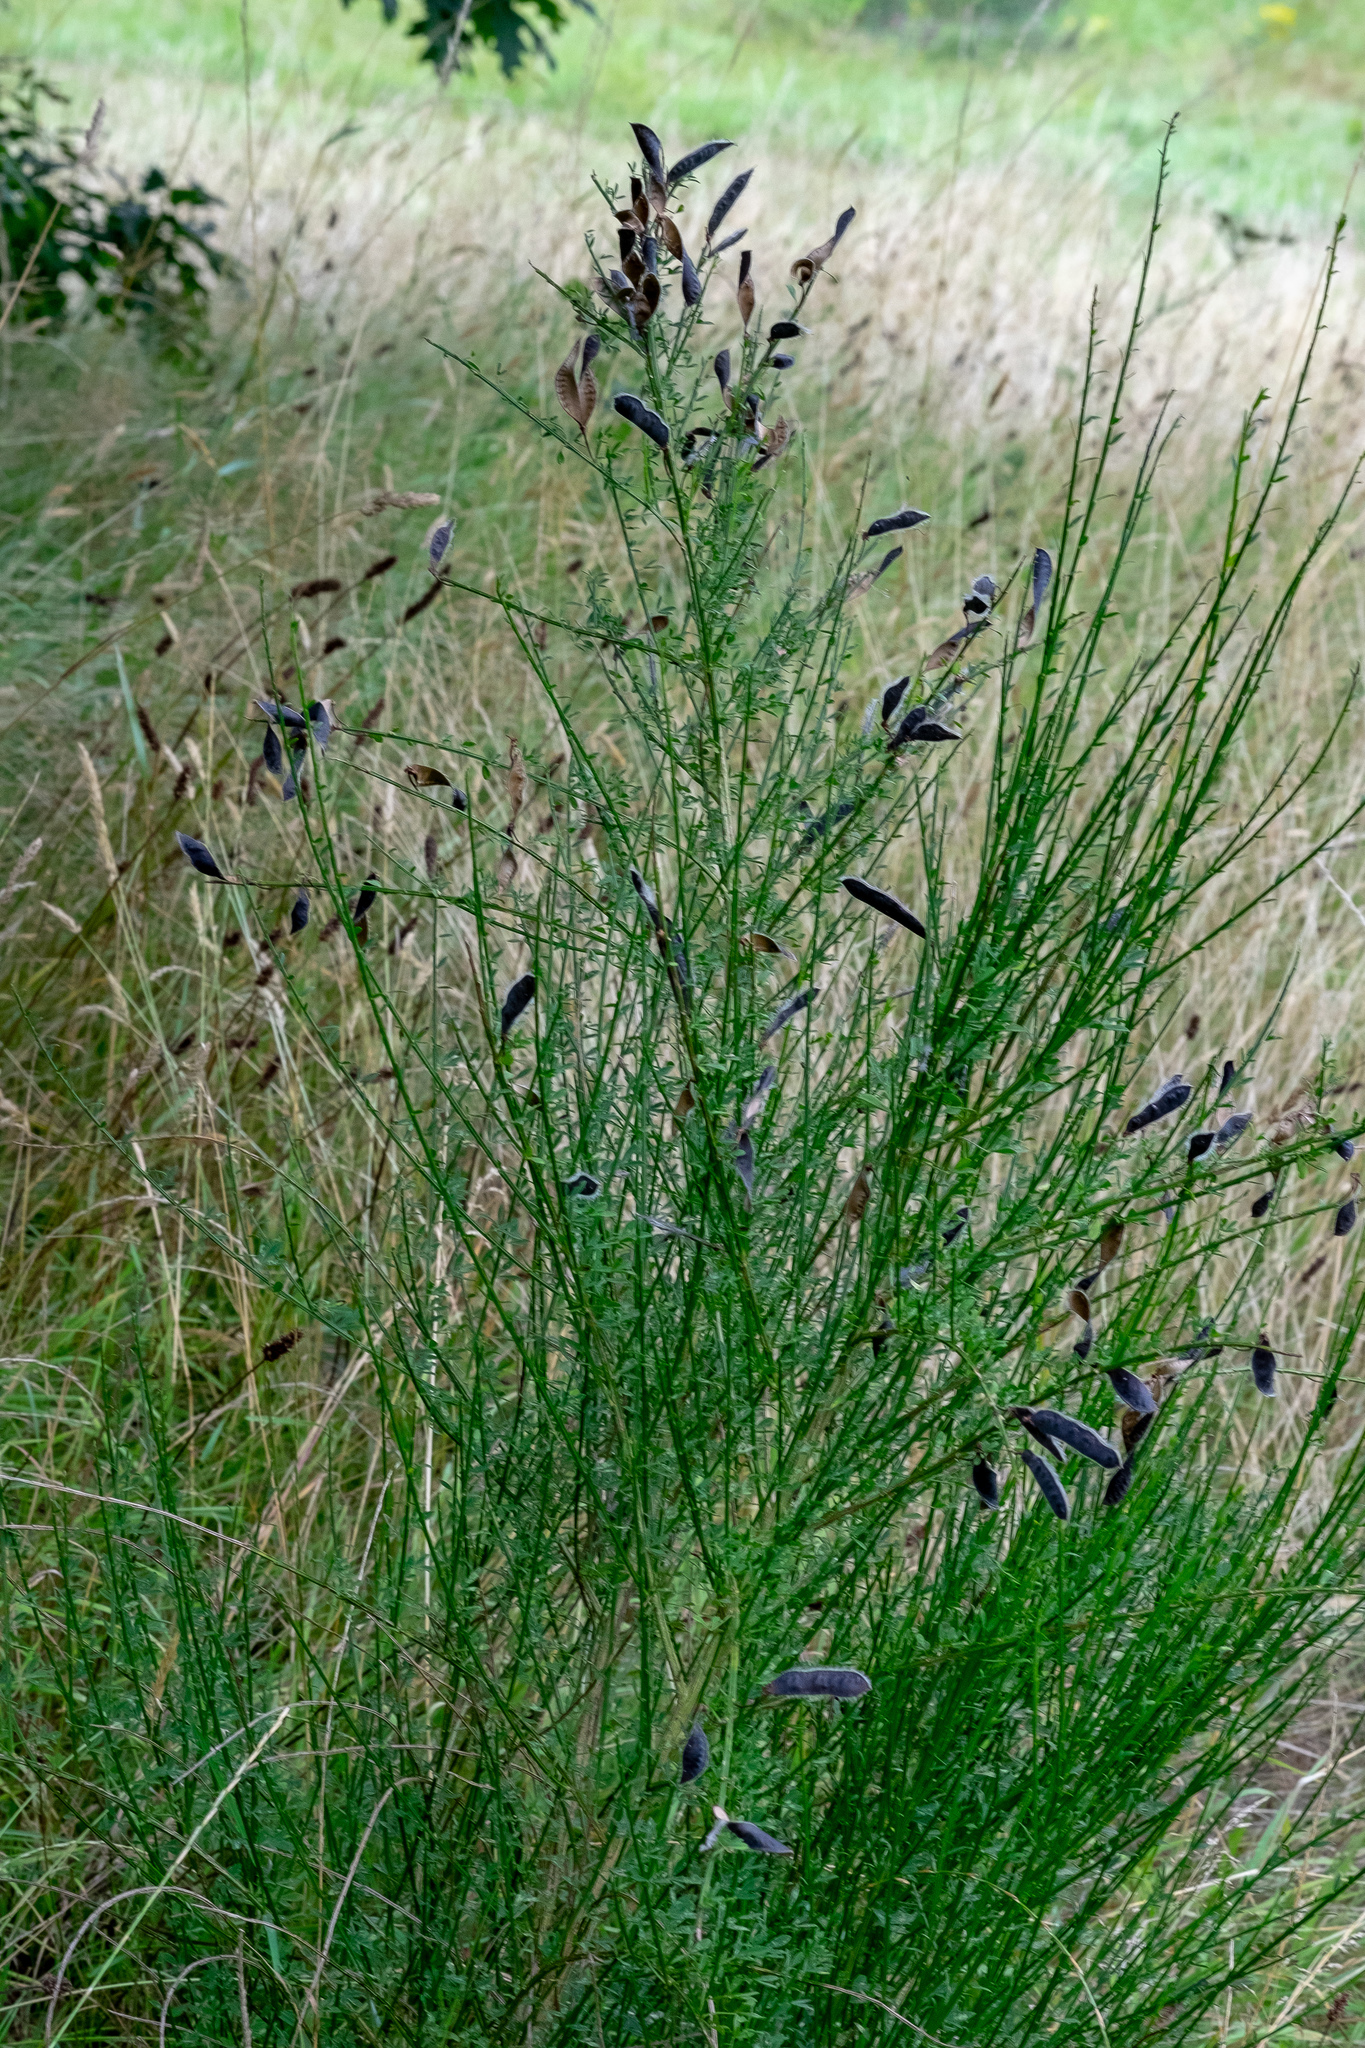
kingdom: Plantae
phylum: Tracheophyta
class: Magnoliopsida
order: Fabales
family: Fabaceae
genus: Cytisus
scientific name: Cytisus scoparius
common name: Scotch broom
